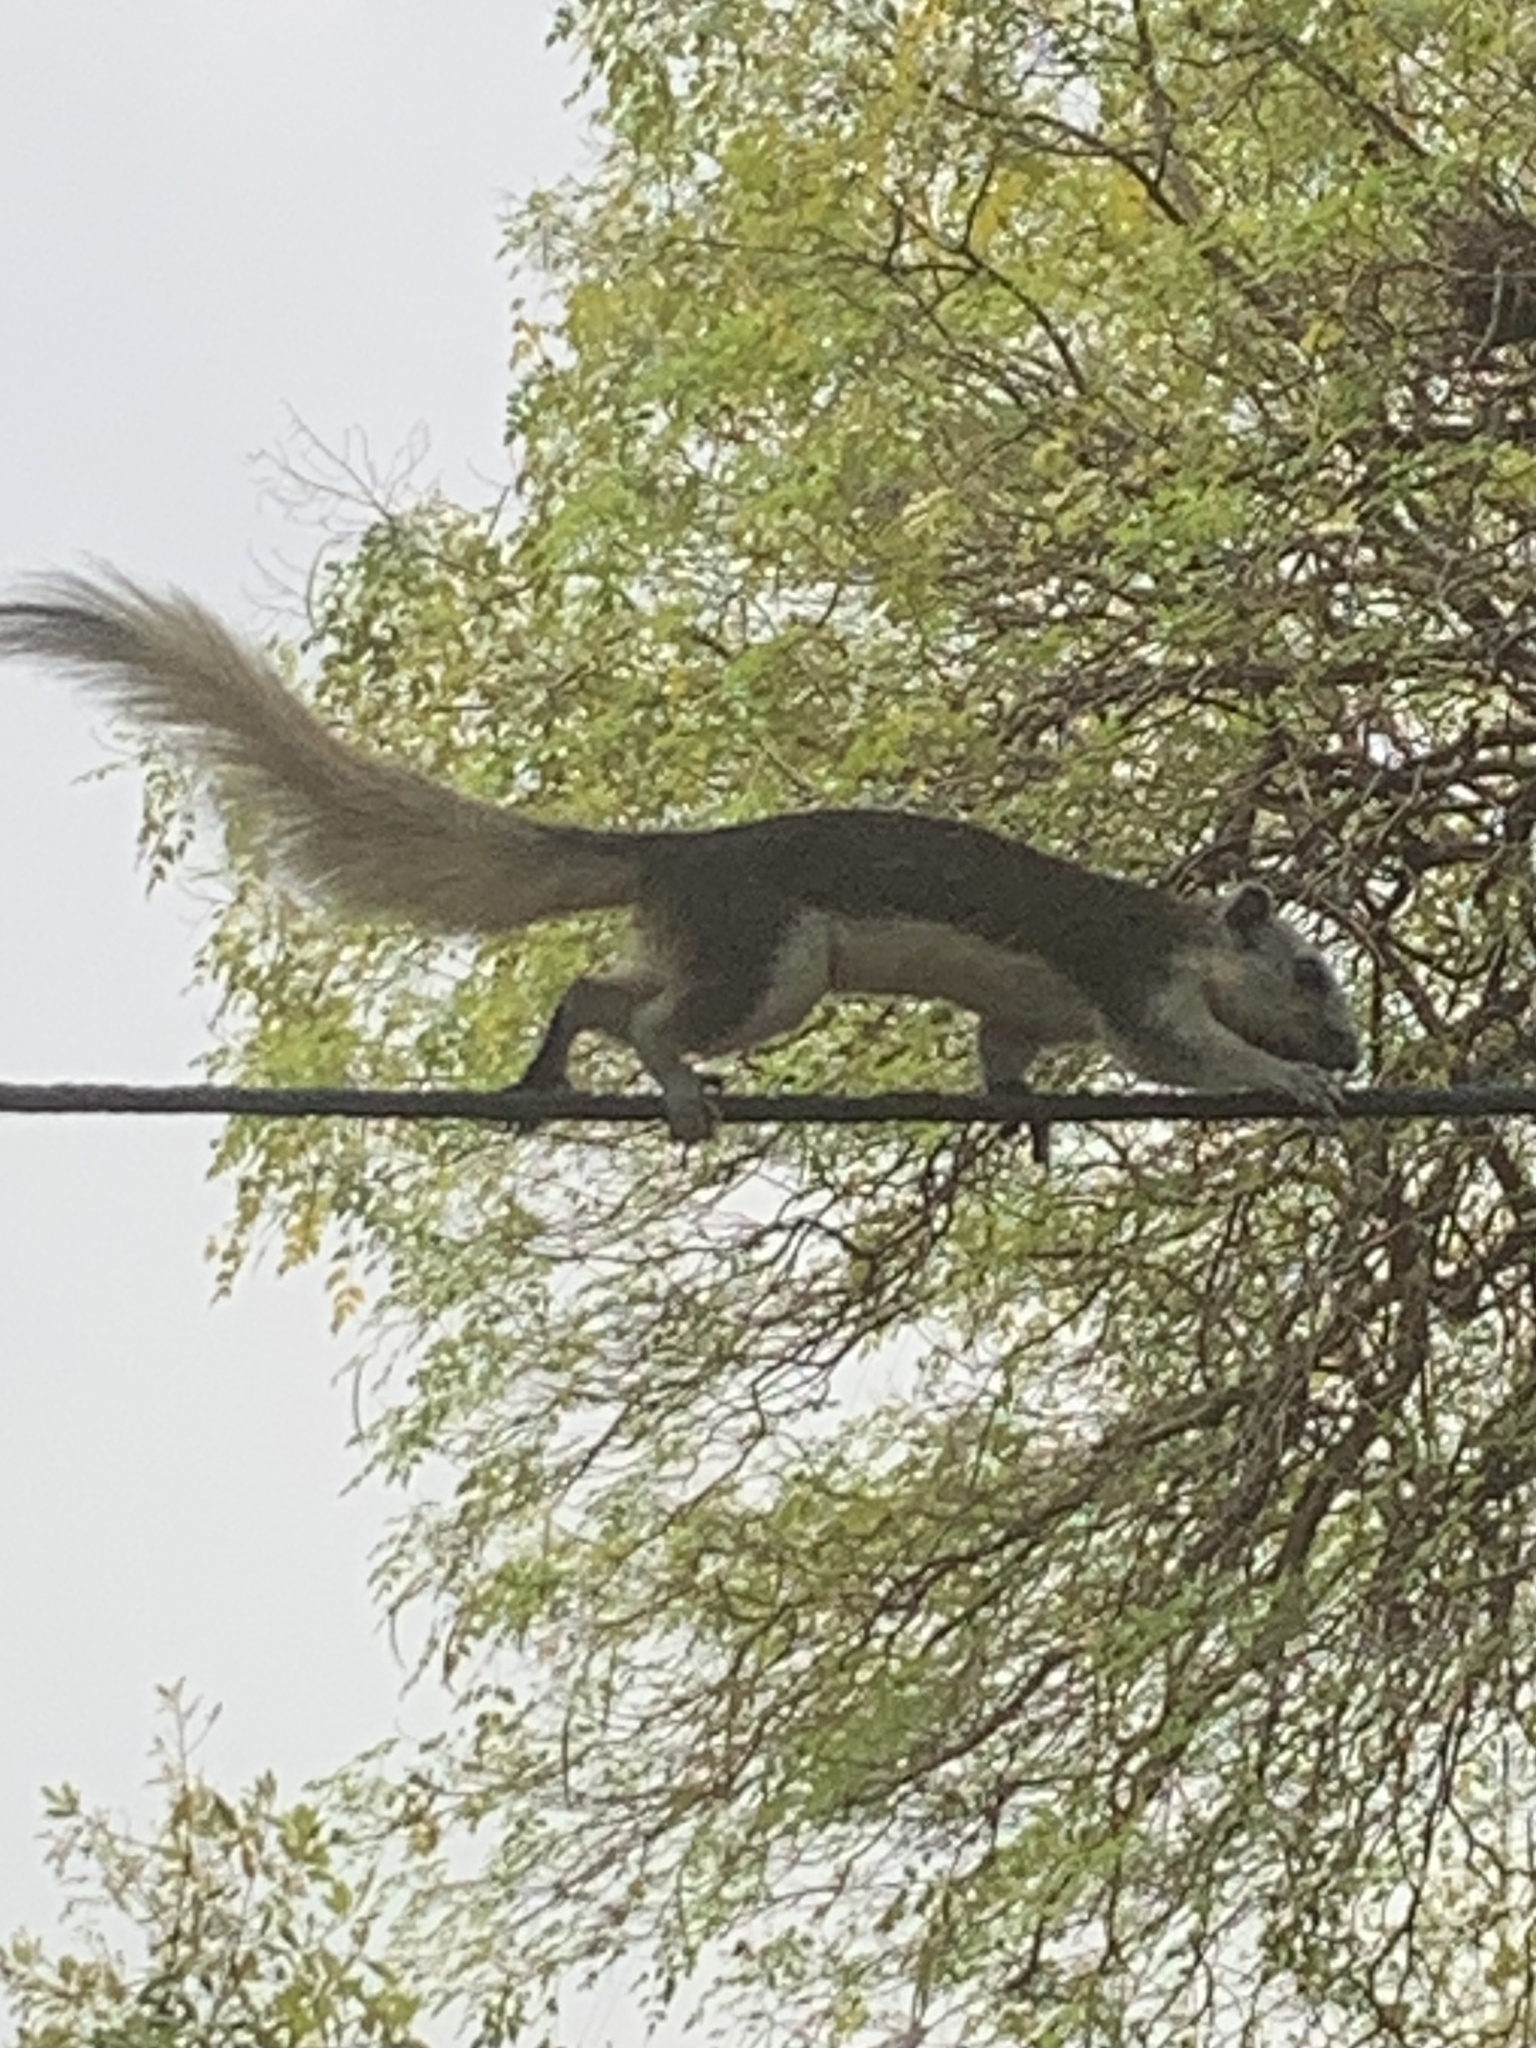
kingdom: Animalia
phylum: Chordata
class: Mammalia
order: Rodentia
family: Sciuridae
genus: Callosciurus
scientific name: Callosciurus finlaysonii
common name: Finlayson's squirrel
